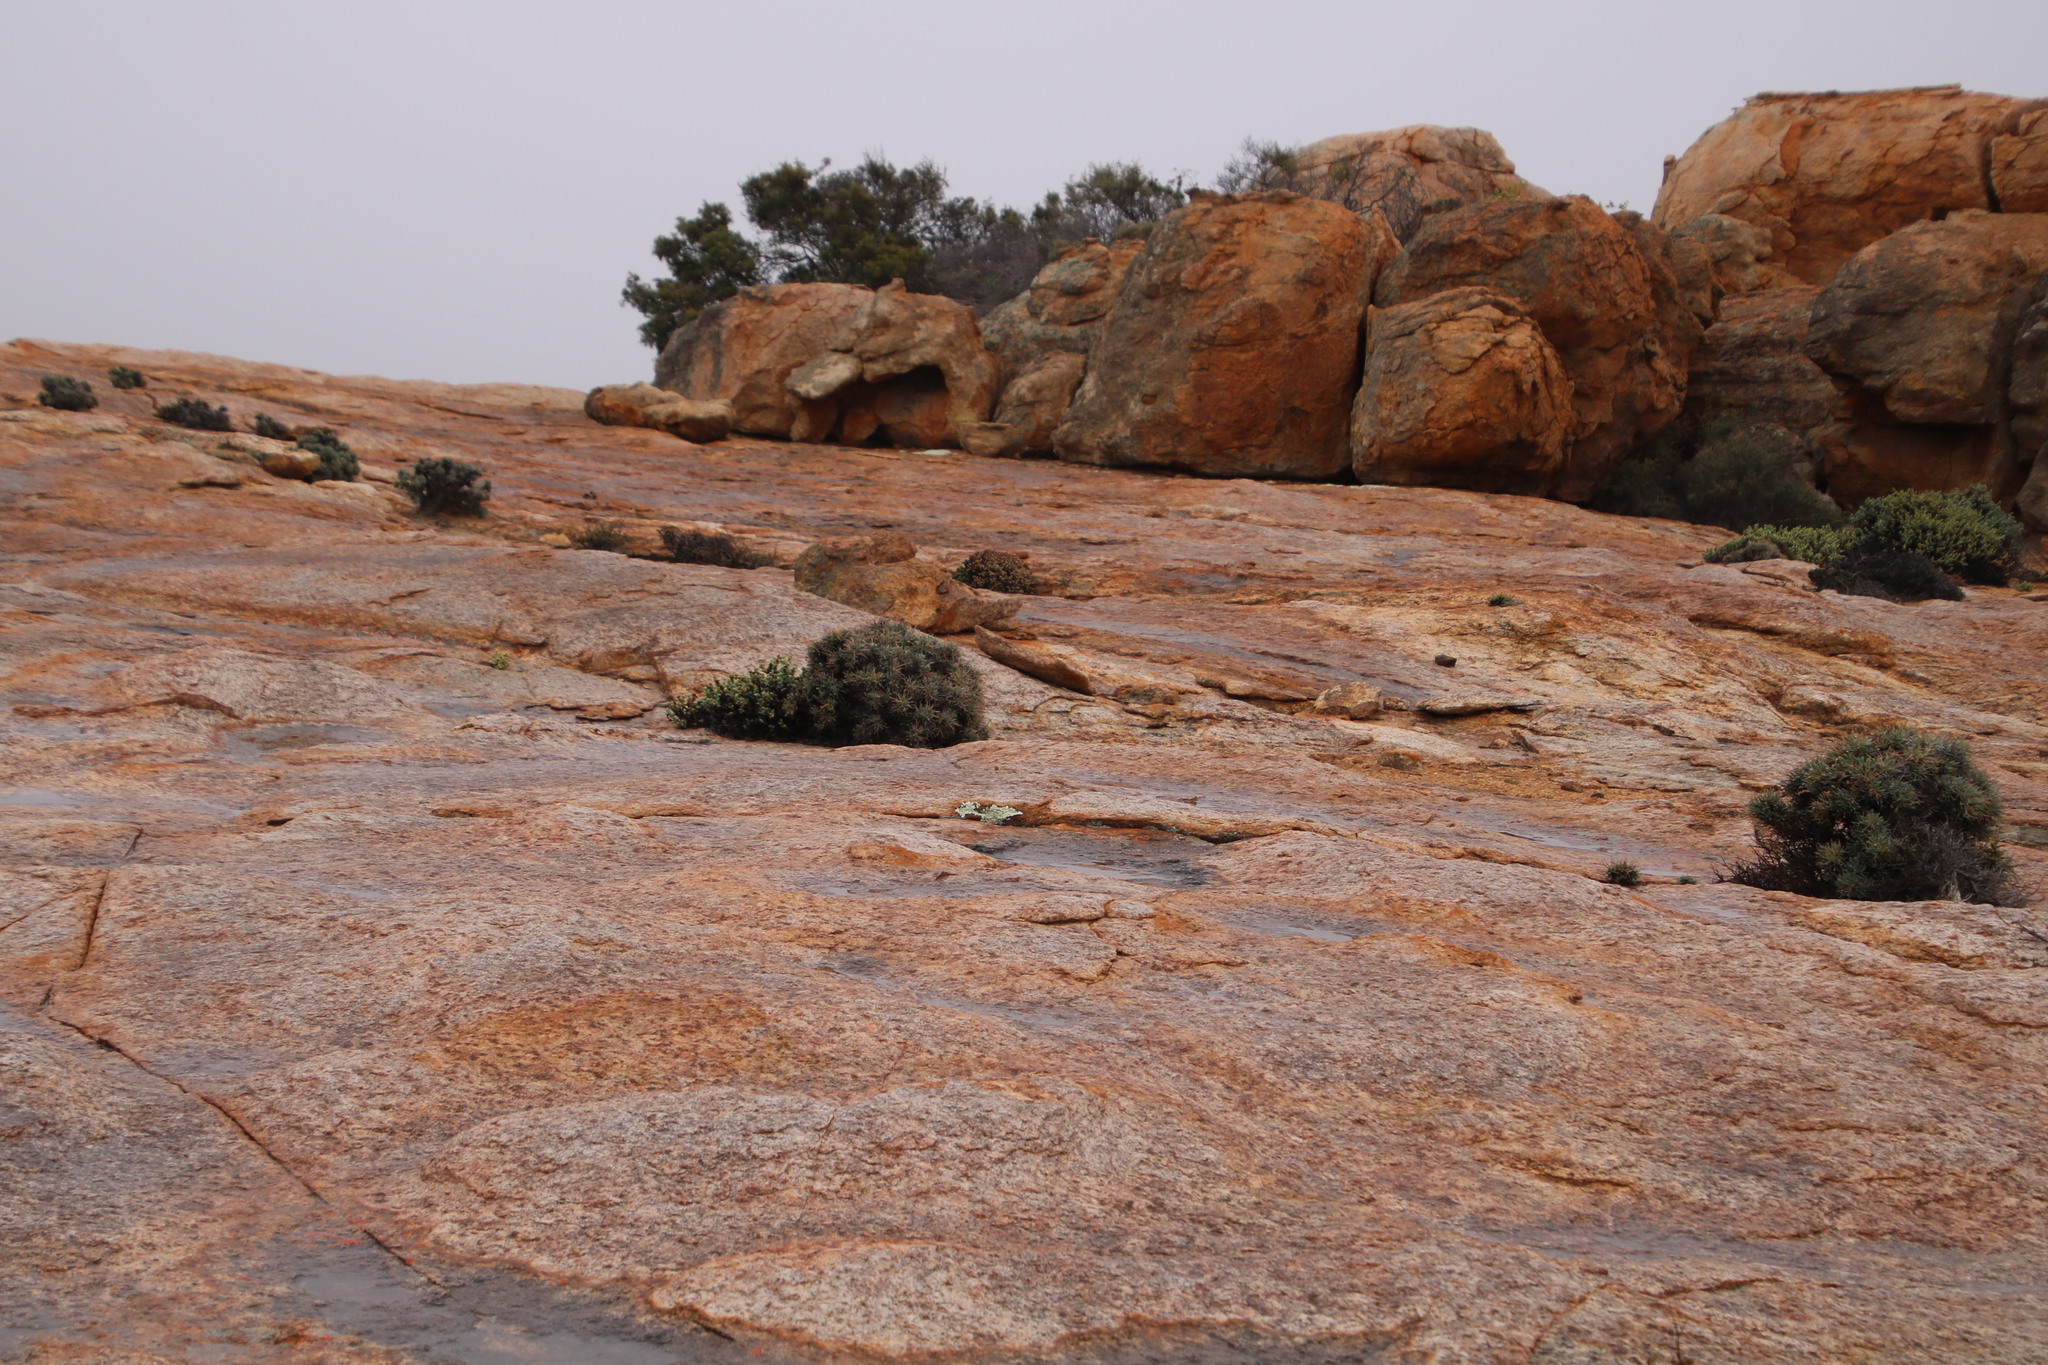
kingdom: Plantae
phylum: Tracheophyta
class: Magnoliopsida
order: Asterales
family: Asteraceae
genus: Othonna
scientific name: Othonna euphorbioides
